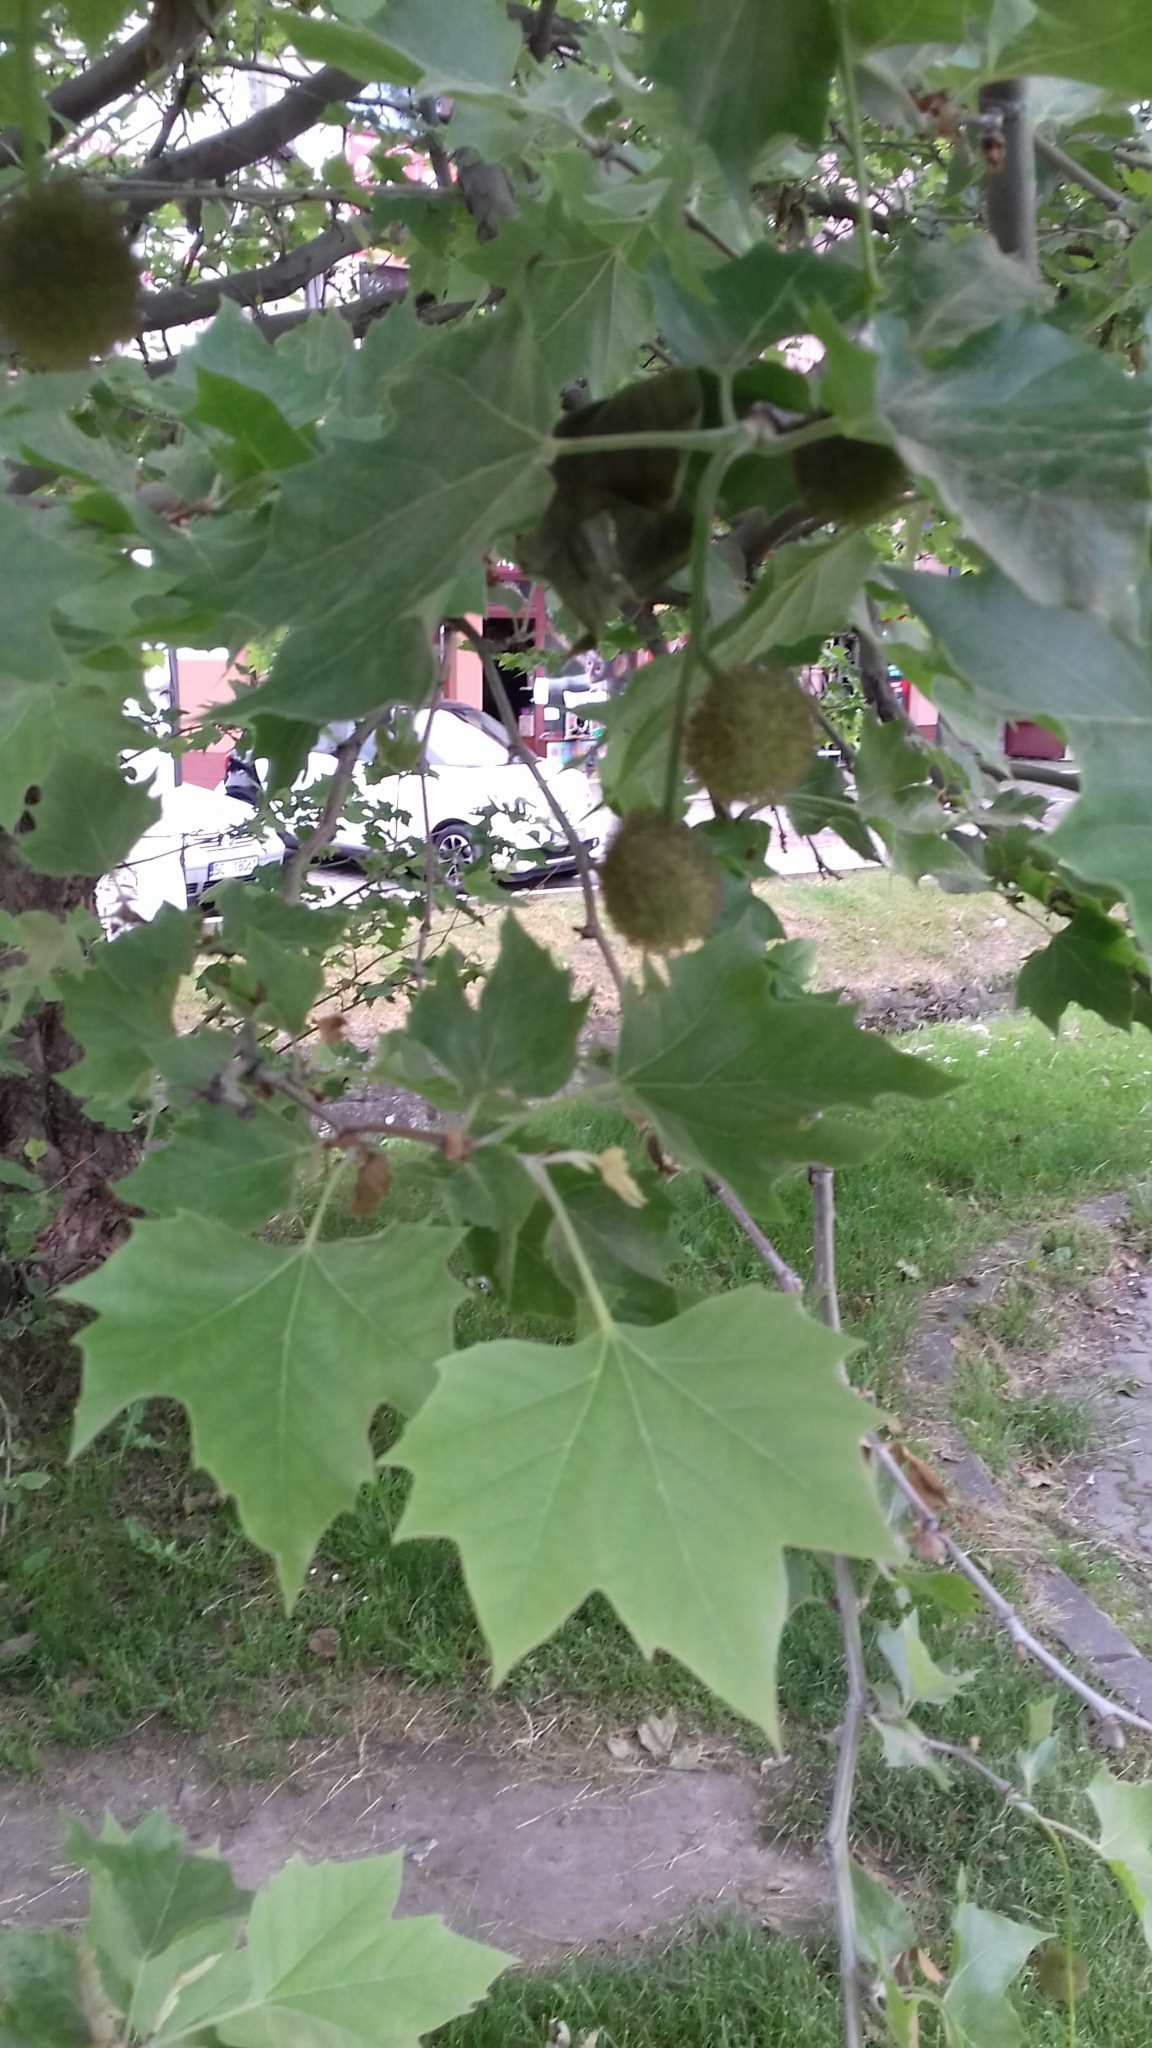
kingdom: Plantae
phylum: Tracheophyta
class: Magnoliopsida
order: Proteales
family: Platanaceae
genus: Platanus
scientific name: Platanus hispanica
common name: London plane
